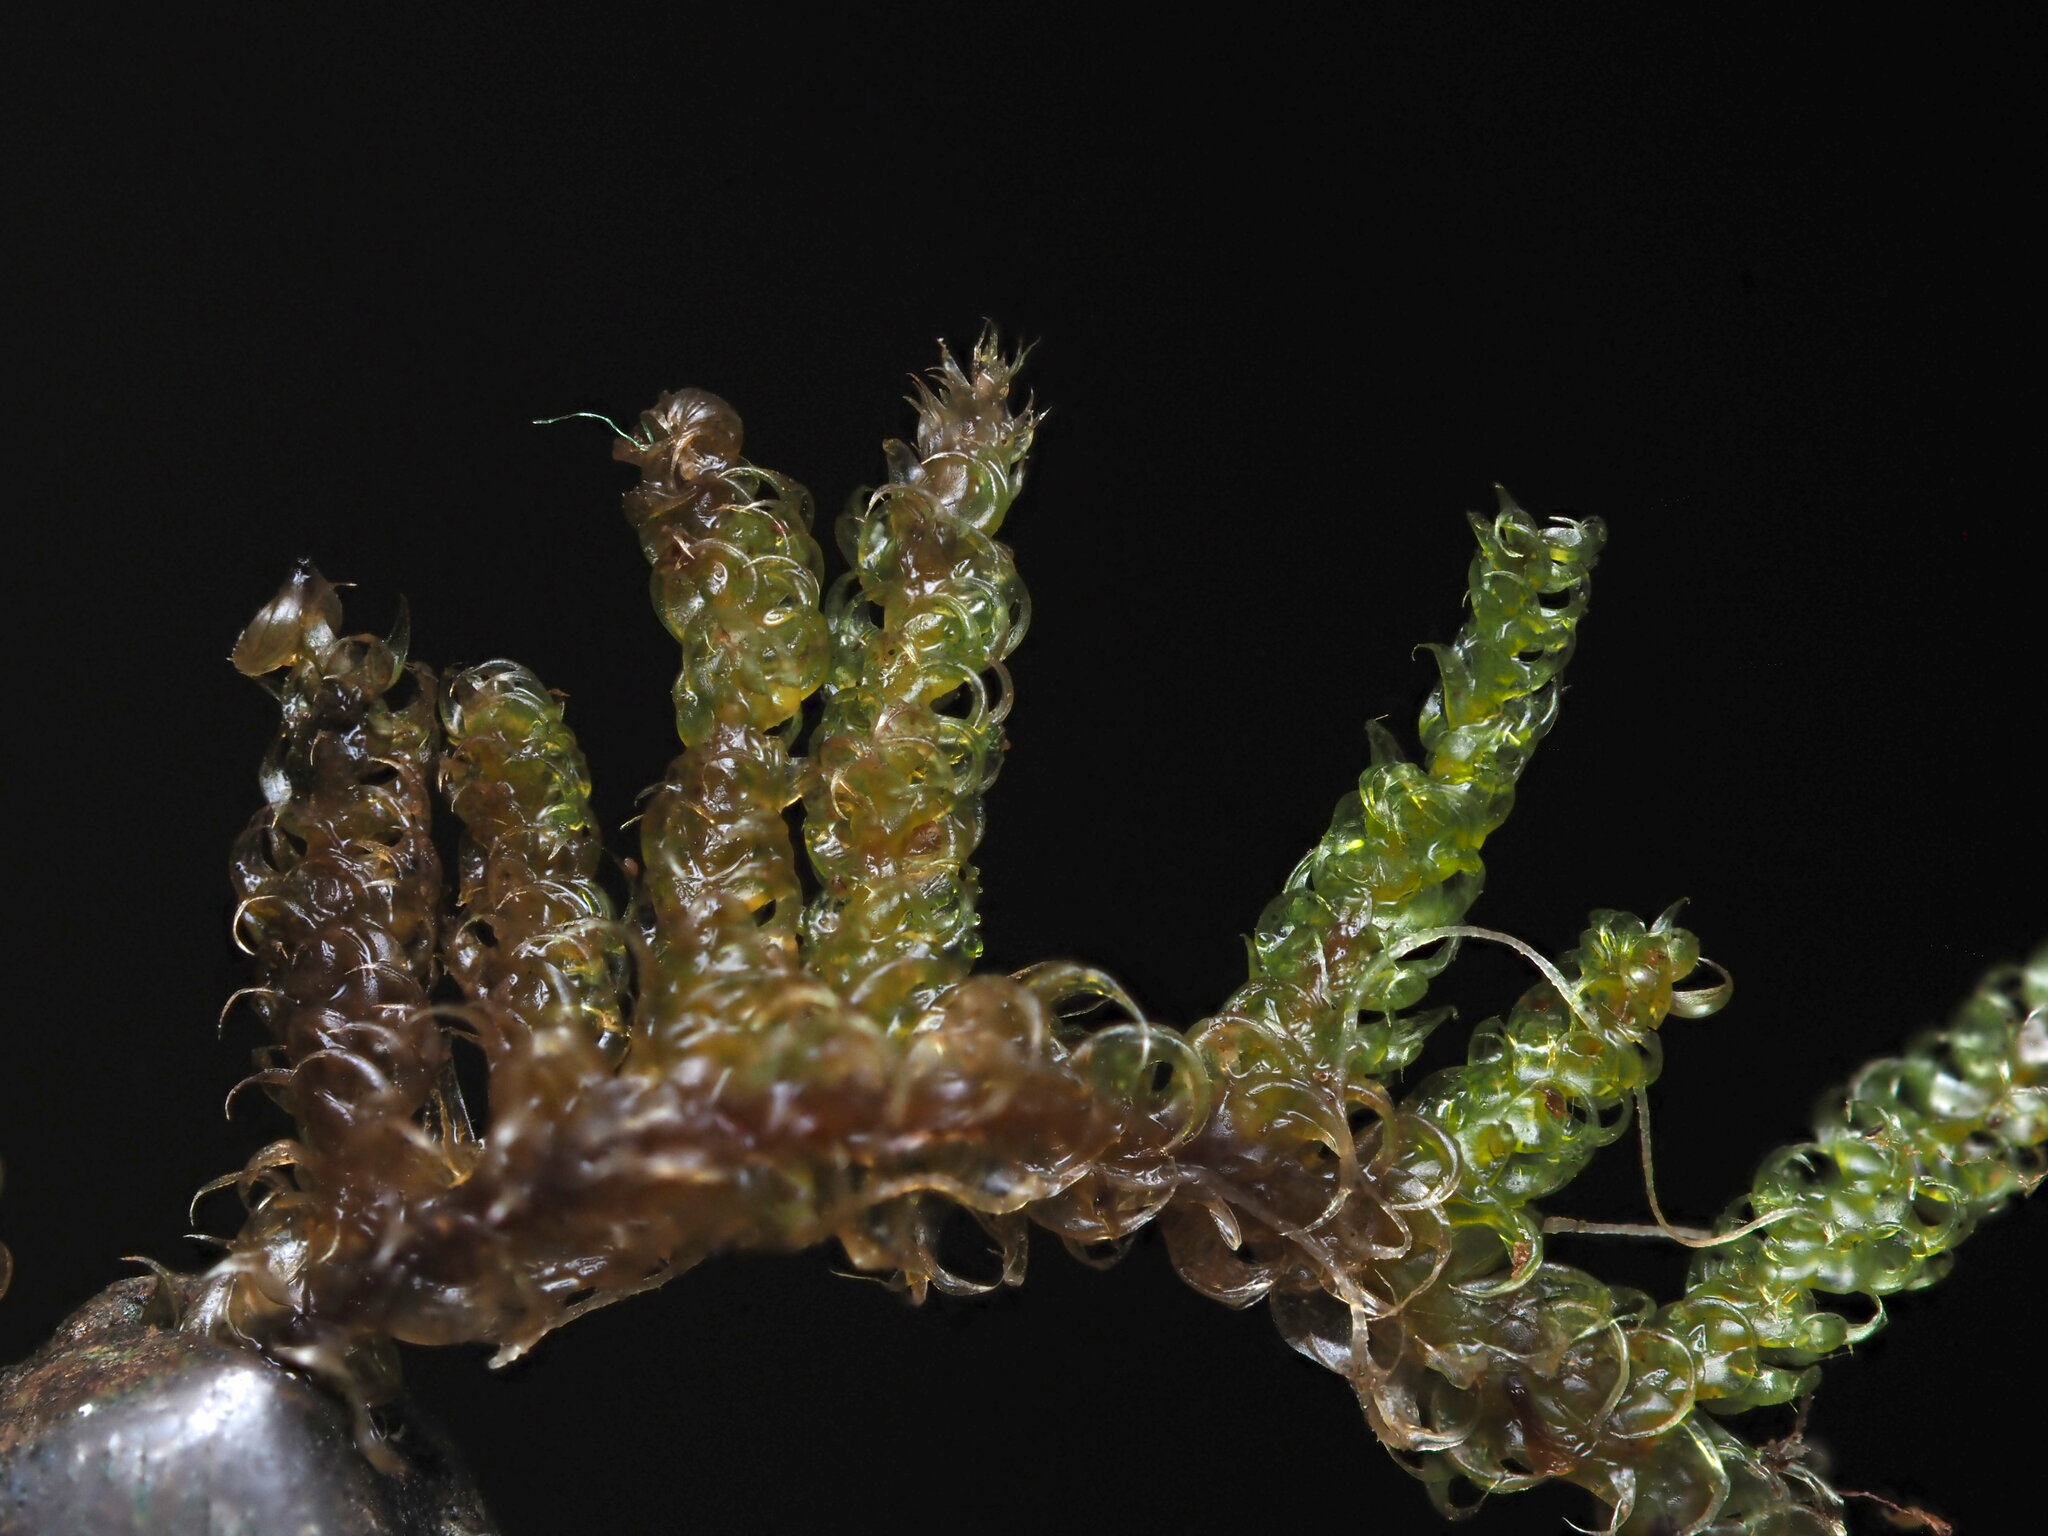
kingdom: Plantae
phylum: Bryophyta
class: Bryopsida
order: Hypnales
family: Hypnaceae
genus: Hypnum
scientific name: Hypnum plumaeforme
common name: Cypress-leaved plaitmoss
